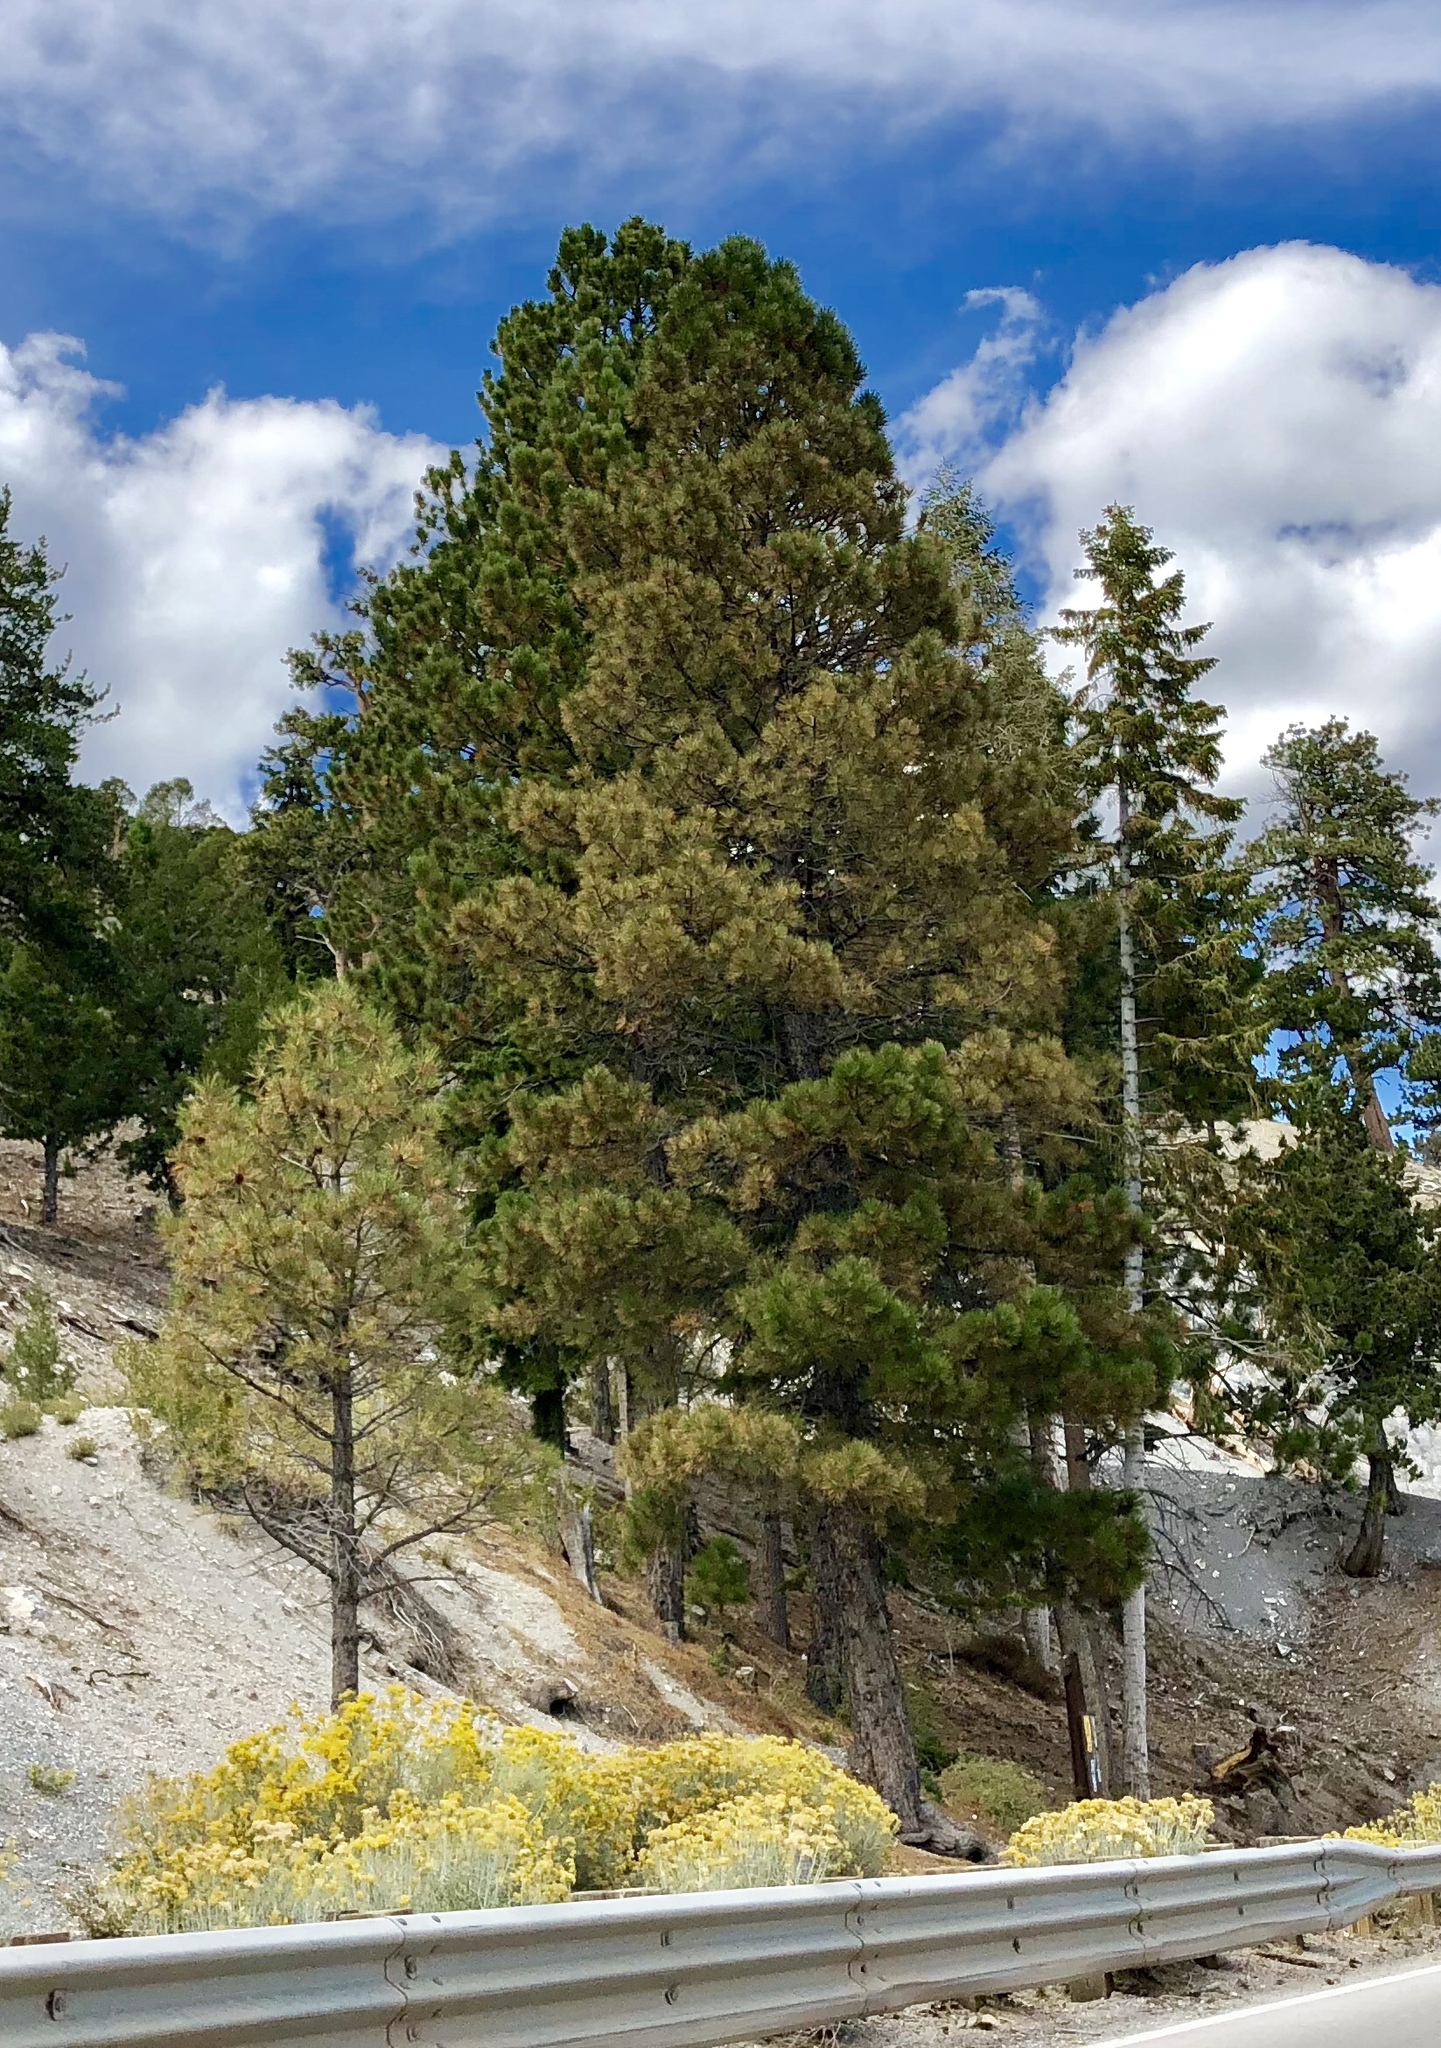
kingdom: Plantae
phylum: Tracheophyta
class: Pinopsida
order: Pinales
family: Pinaceae
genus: Pinus
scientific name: Pinus ponderosa
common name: Western yellow-pine
